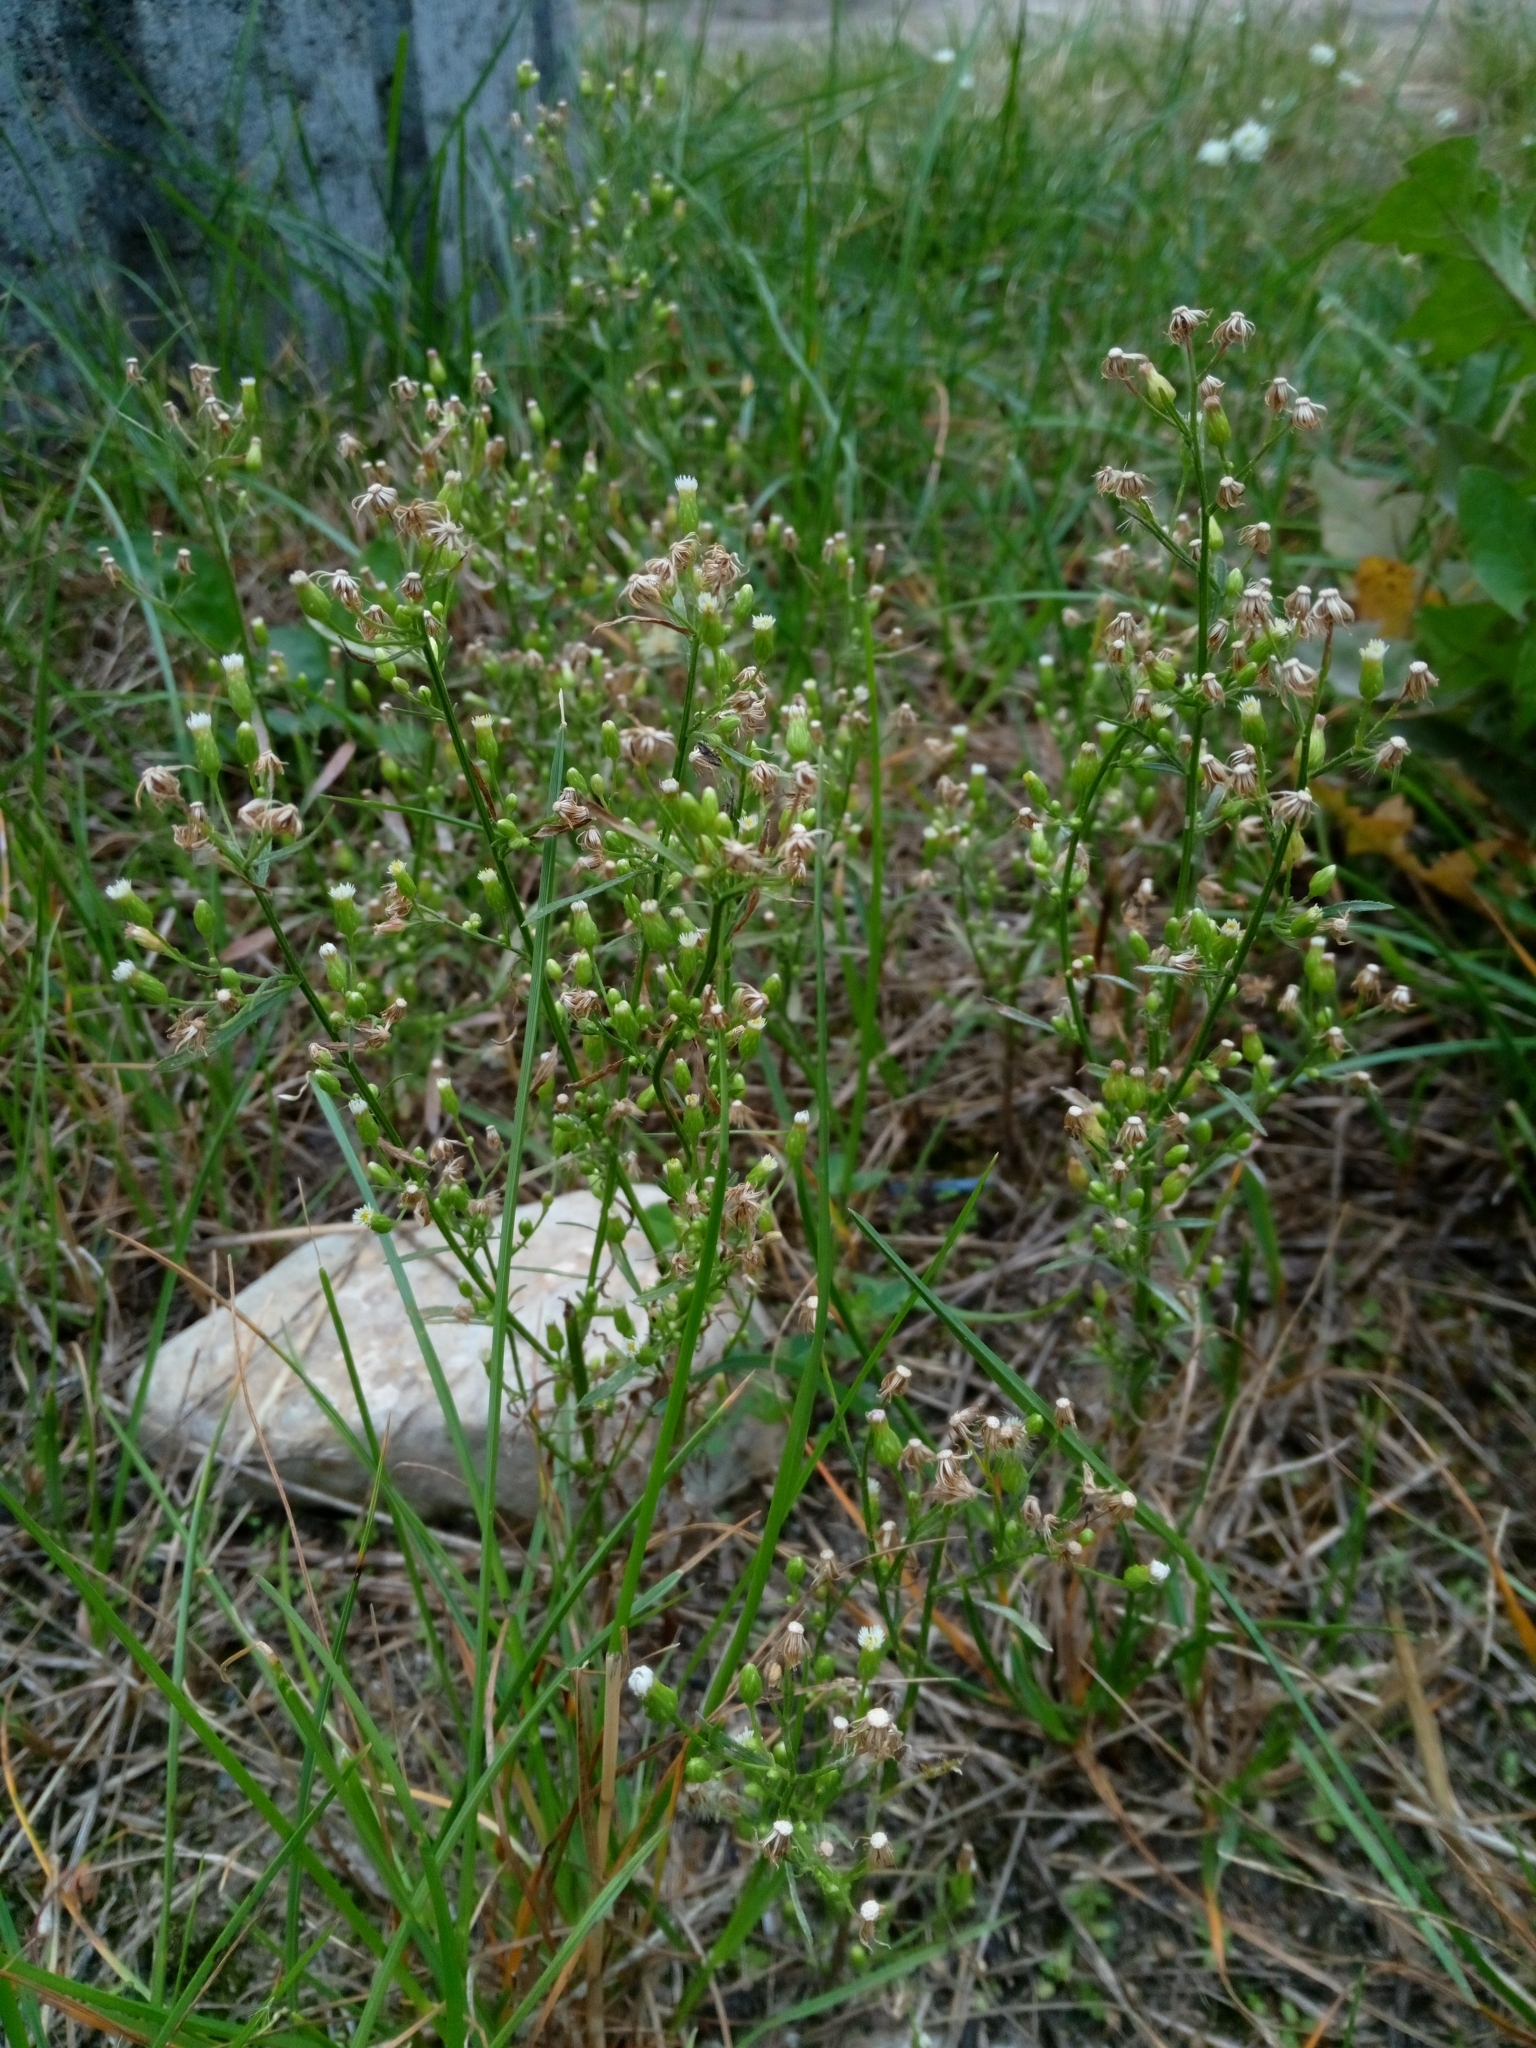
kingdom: Plantae
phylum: Tracheophyta
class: Magnoliopsida
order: Asterales
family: Asteraceae
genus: Erigeron
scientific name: Erigeron canadensis
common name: Canadian fleabane
